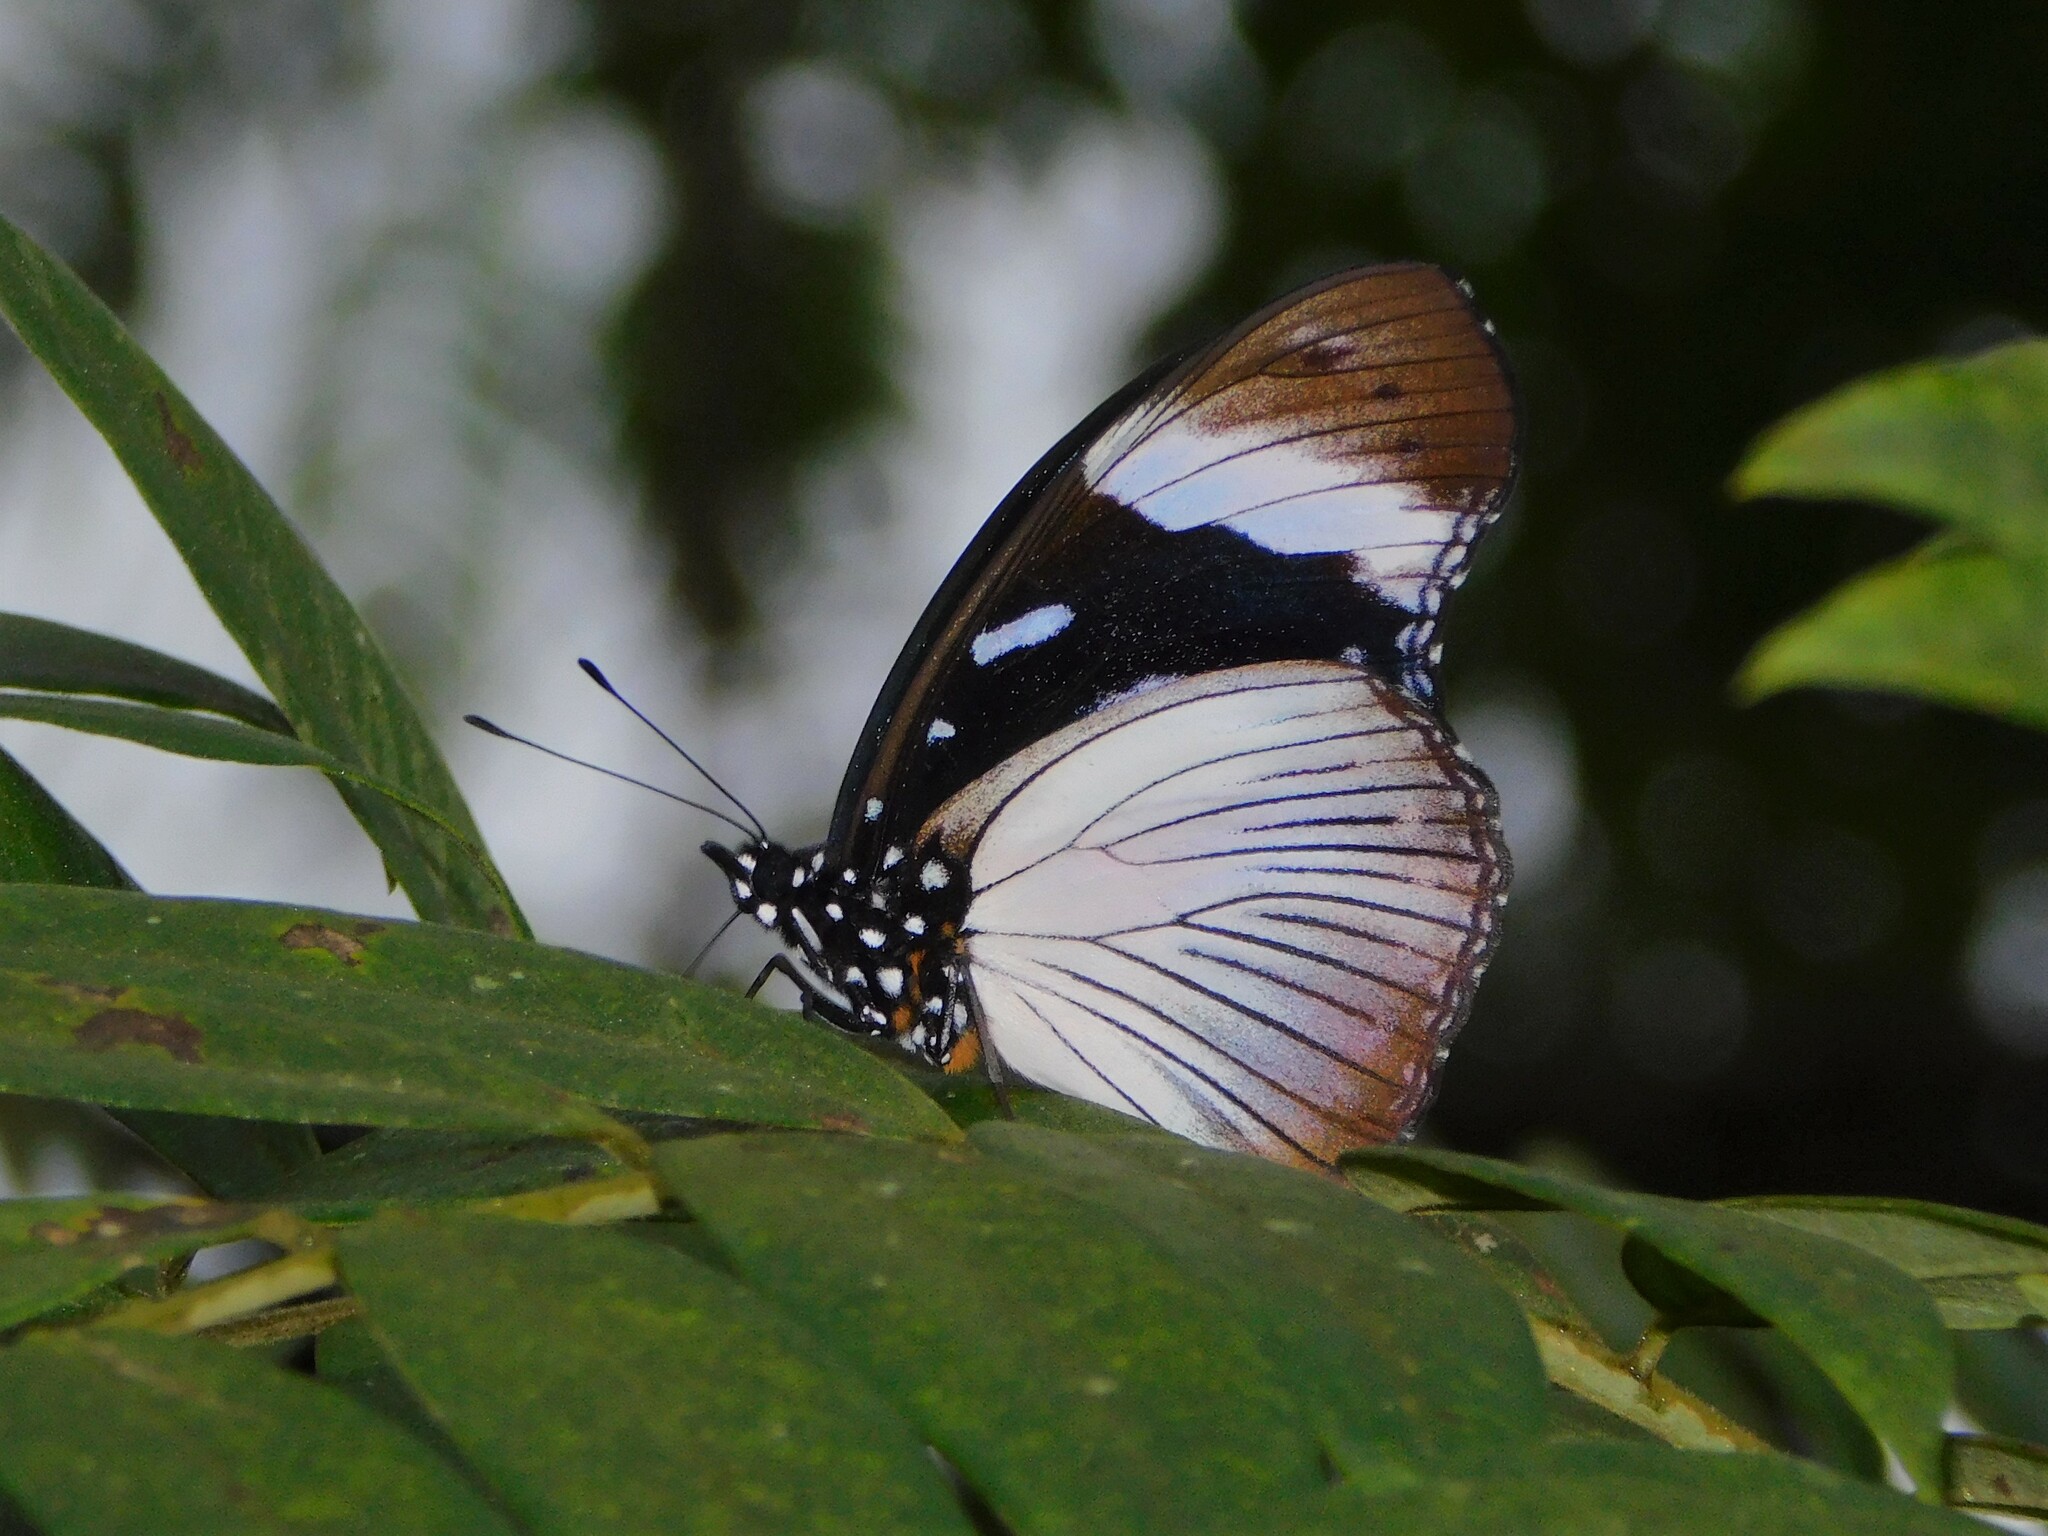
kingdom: Animalia
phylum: Arthropoda
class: Insecta
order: Lepidoptera
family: Nymphalidae
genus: Hypolimnas
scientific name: Hypolimnas dubius
